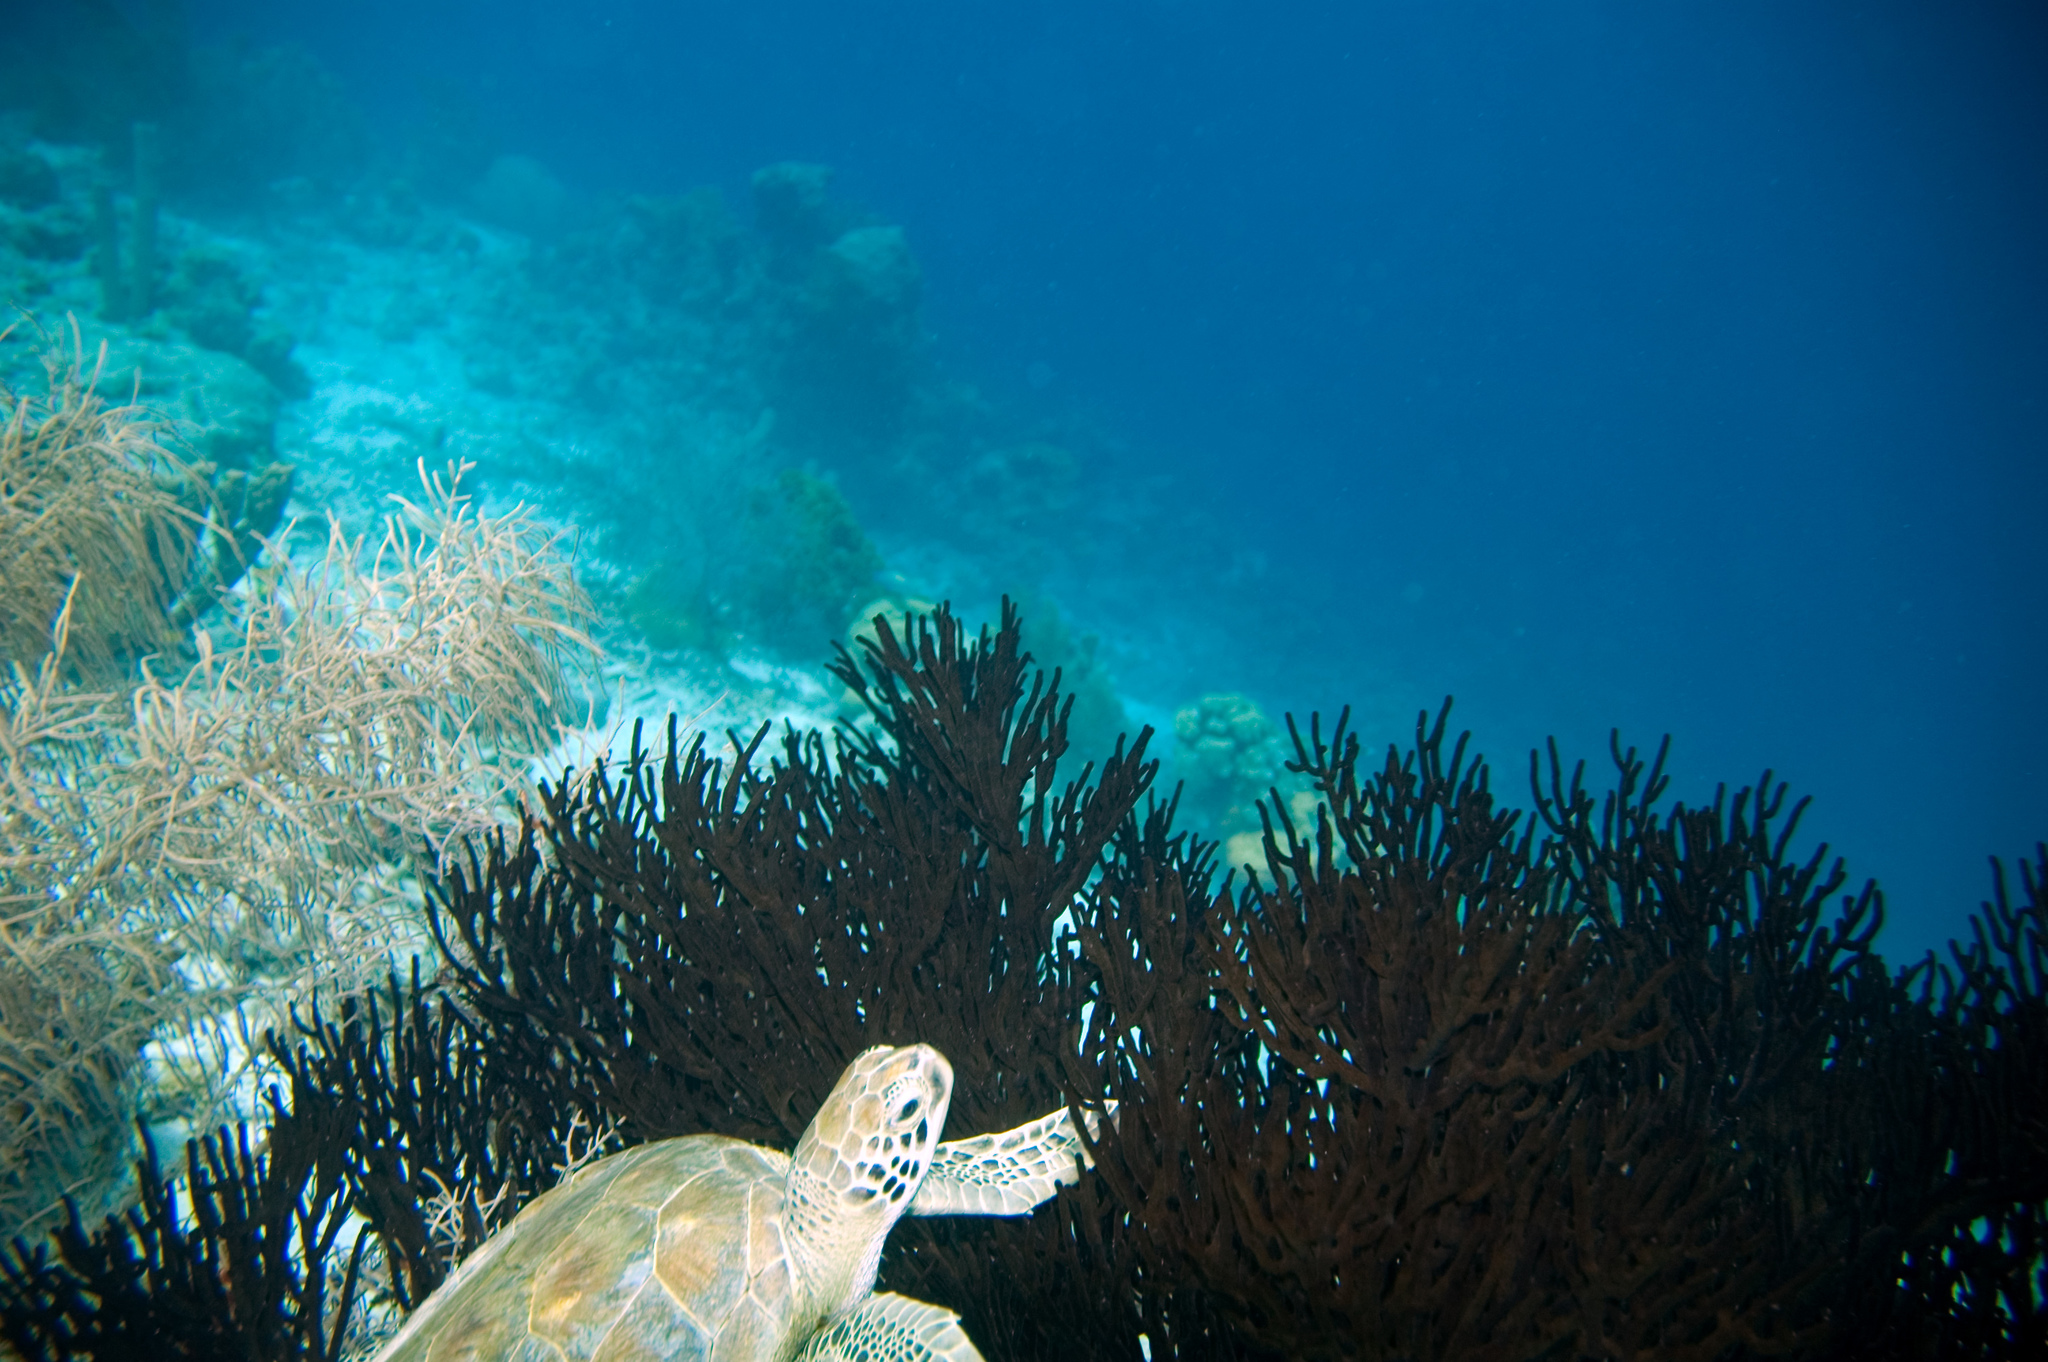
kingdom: Animalia
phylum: Chordata
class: Testudines
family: Cheloniidae
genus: Chelonia
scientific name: Chelonia mydas
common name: Green turtle
